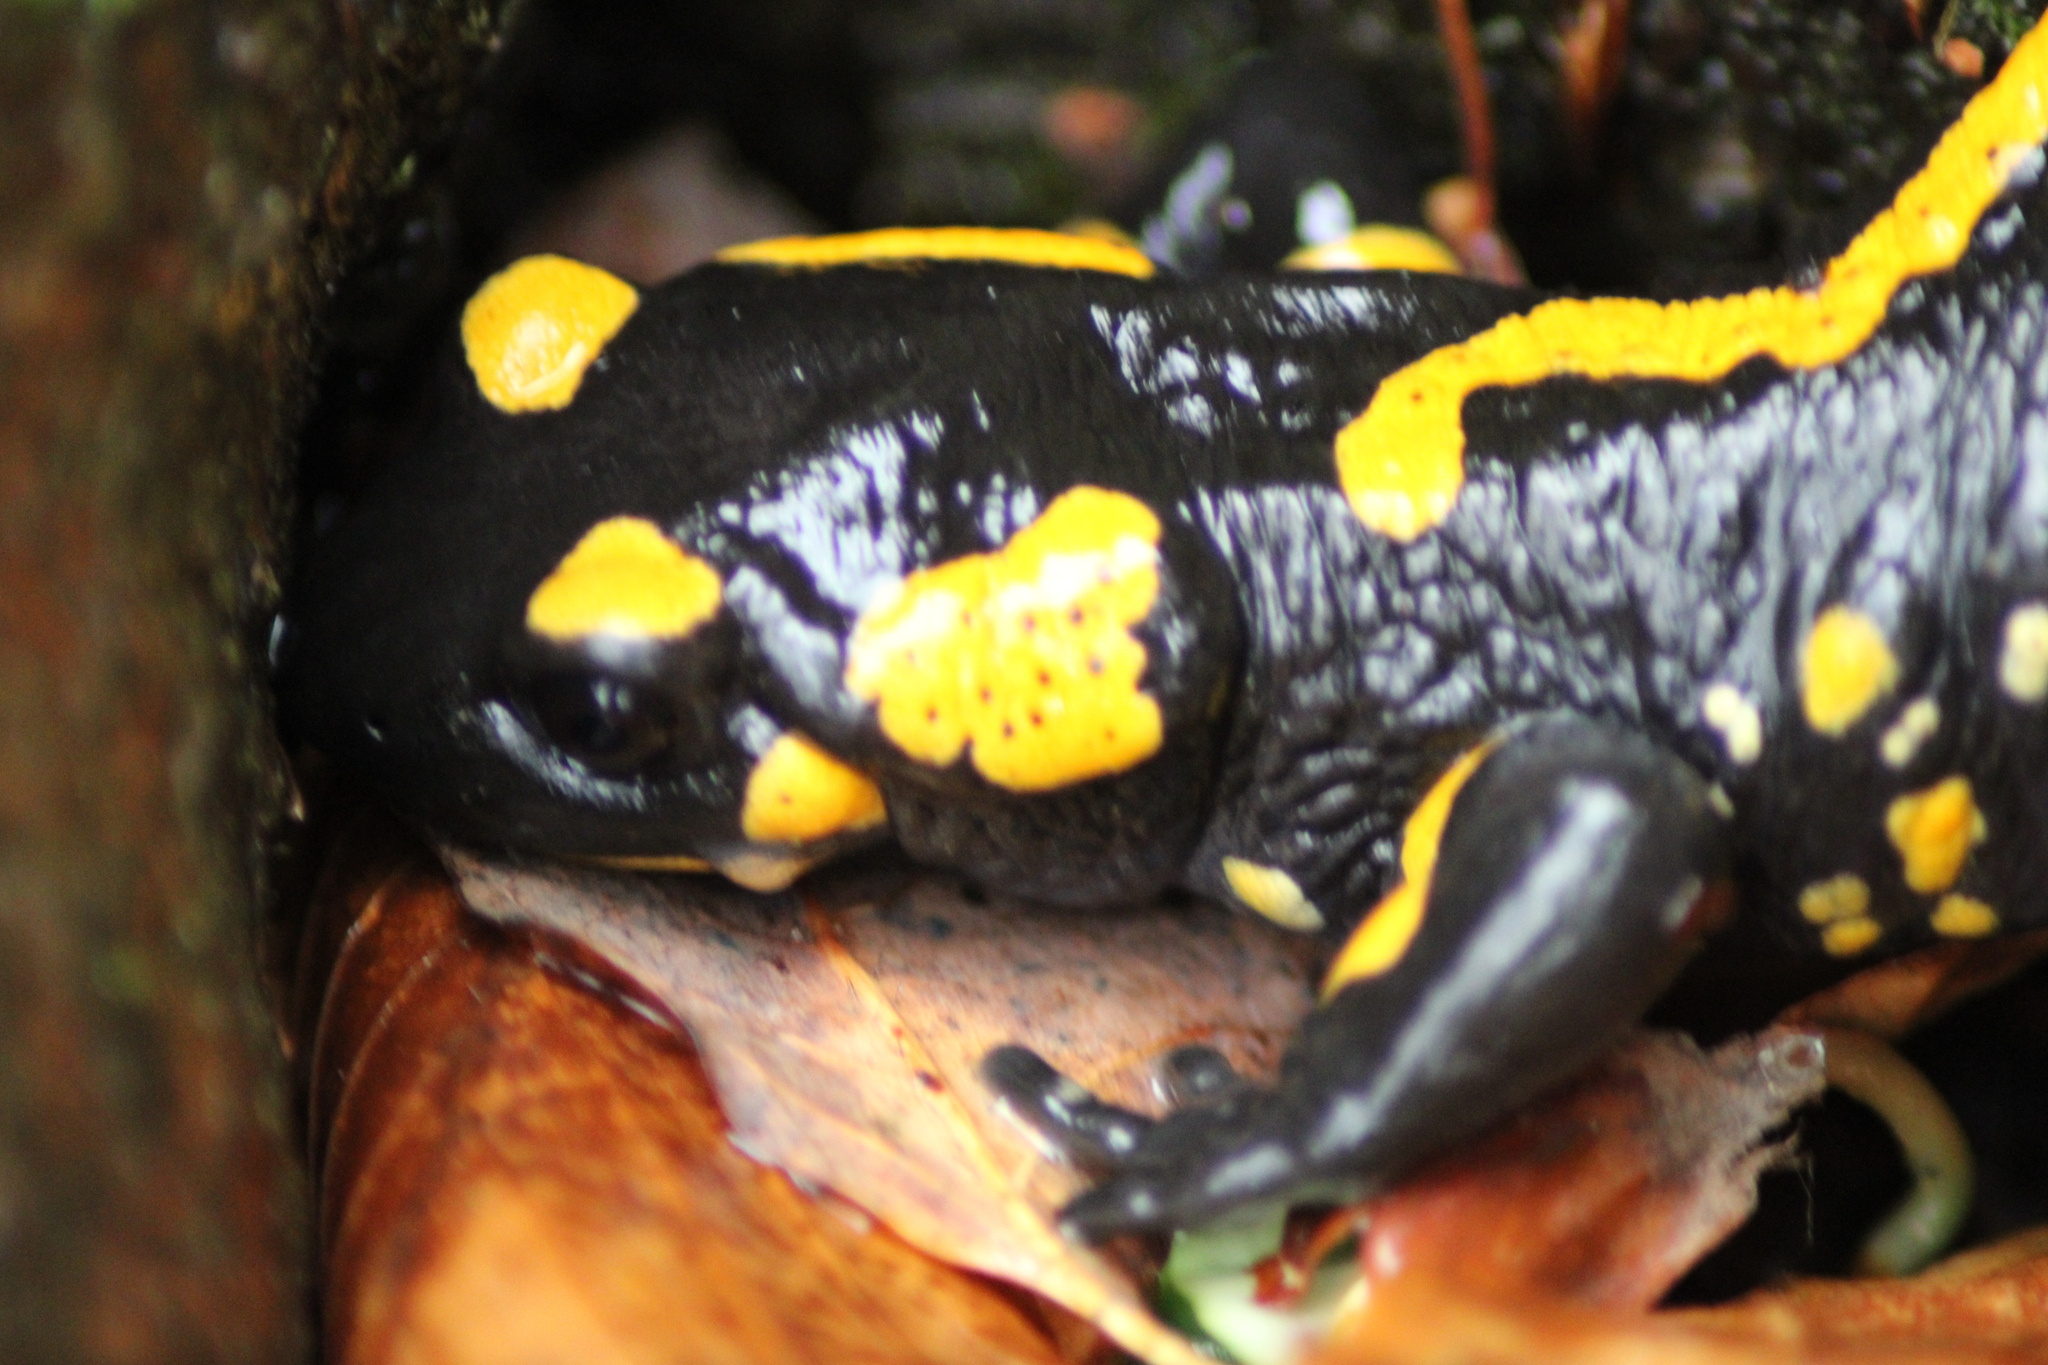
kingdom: Animalia
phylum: Chordata
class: Amphibia
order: Caudata
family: Salamandridae
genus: Salamandra
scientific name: Salamandra salamandra
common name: Fire salamander
